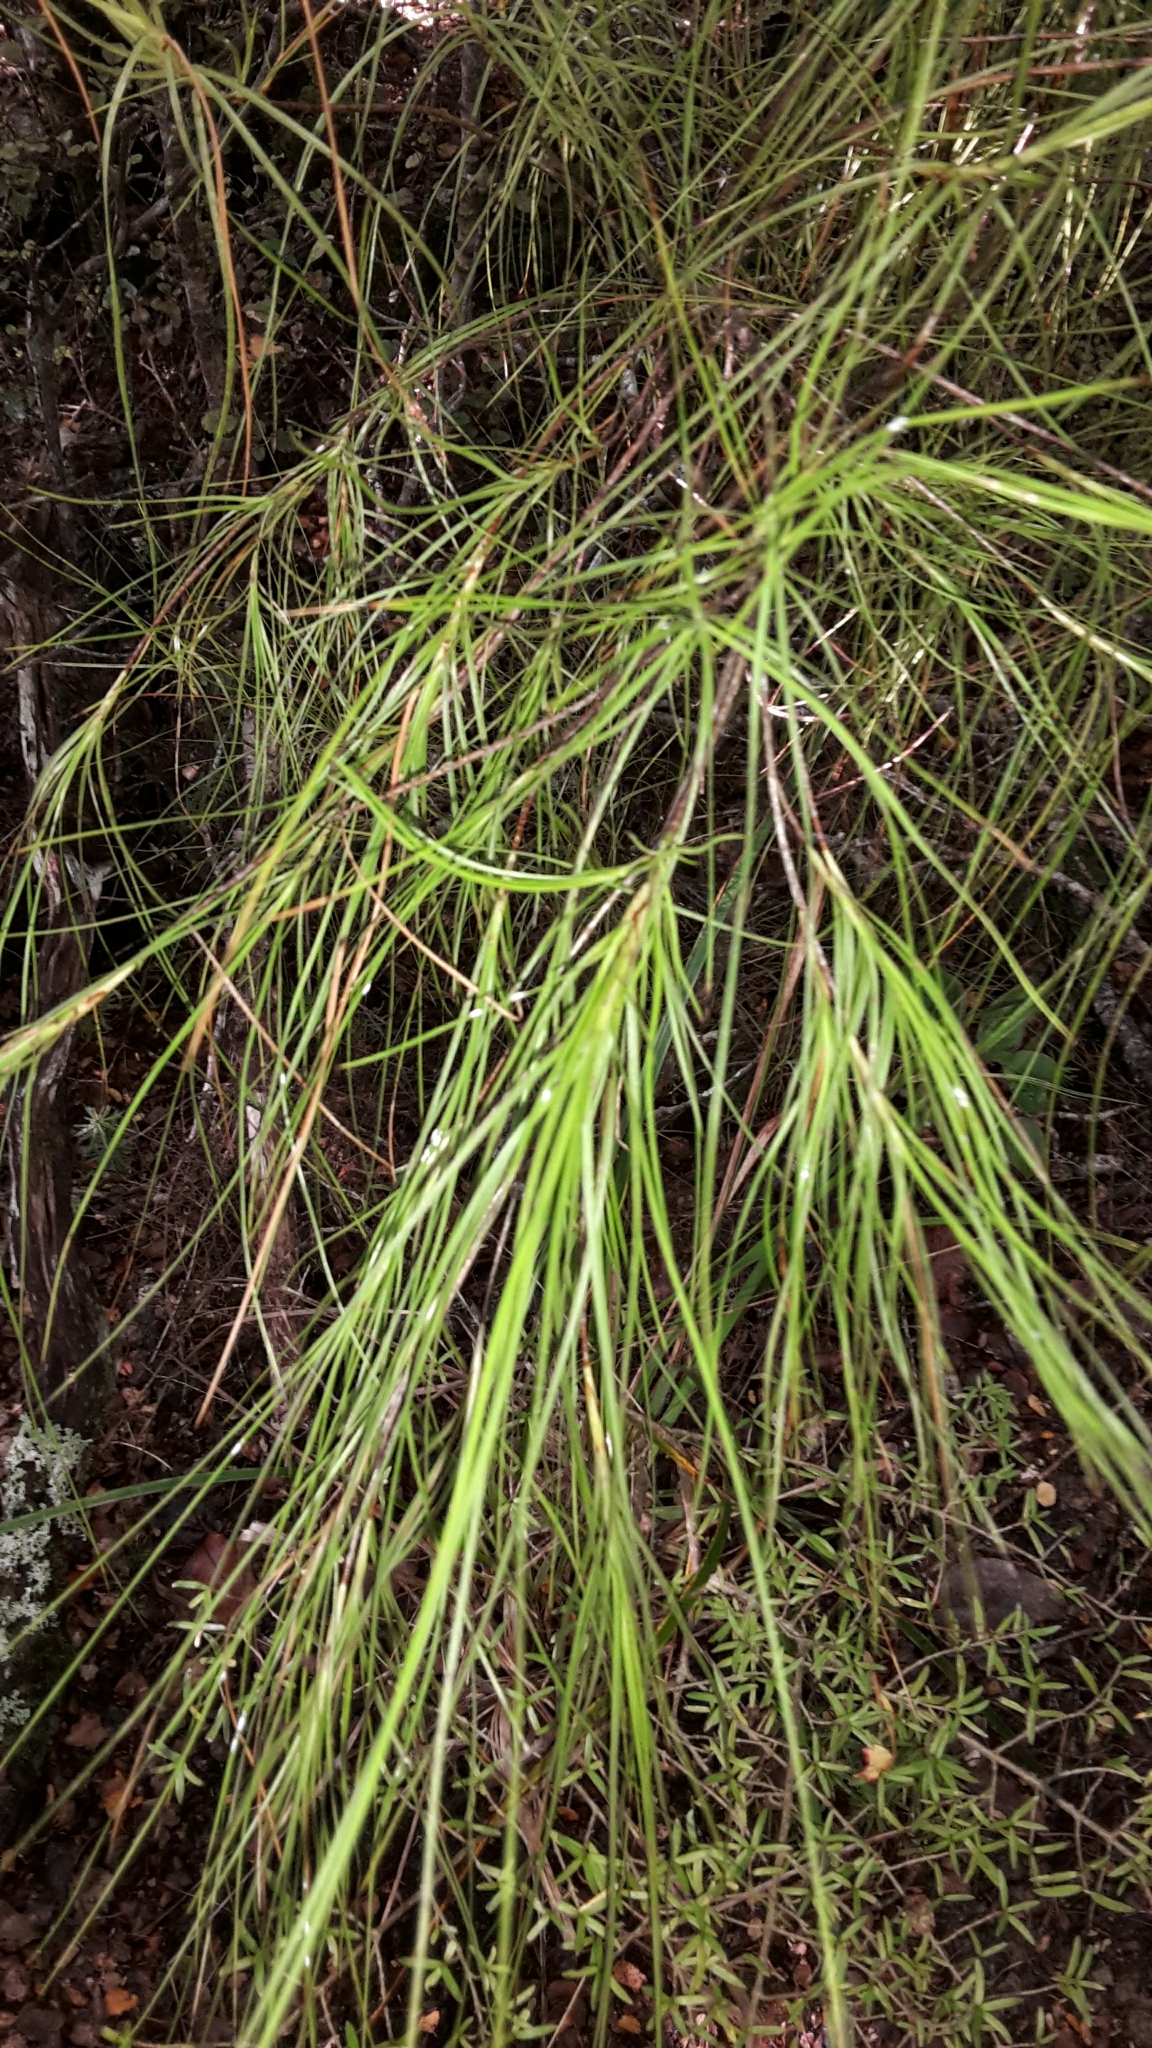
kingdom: Plantae
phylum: Tracheophyta
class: Magnoliopsida
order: Ericales
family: Ericaceae
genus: Dracophyllum
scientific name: Dracophyllum filifolium
